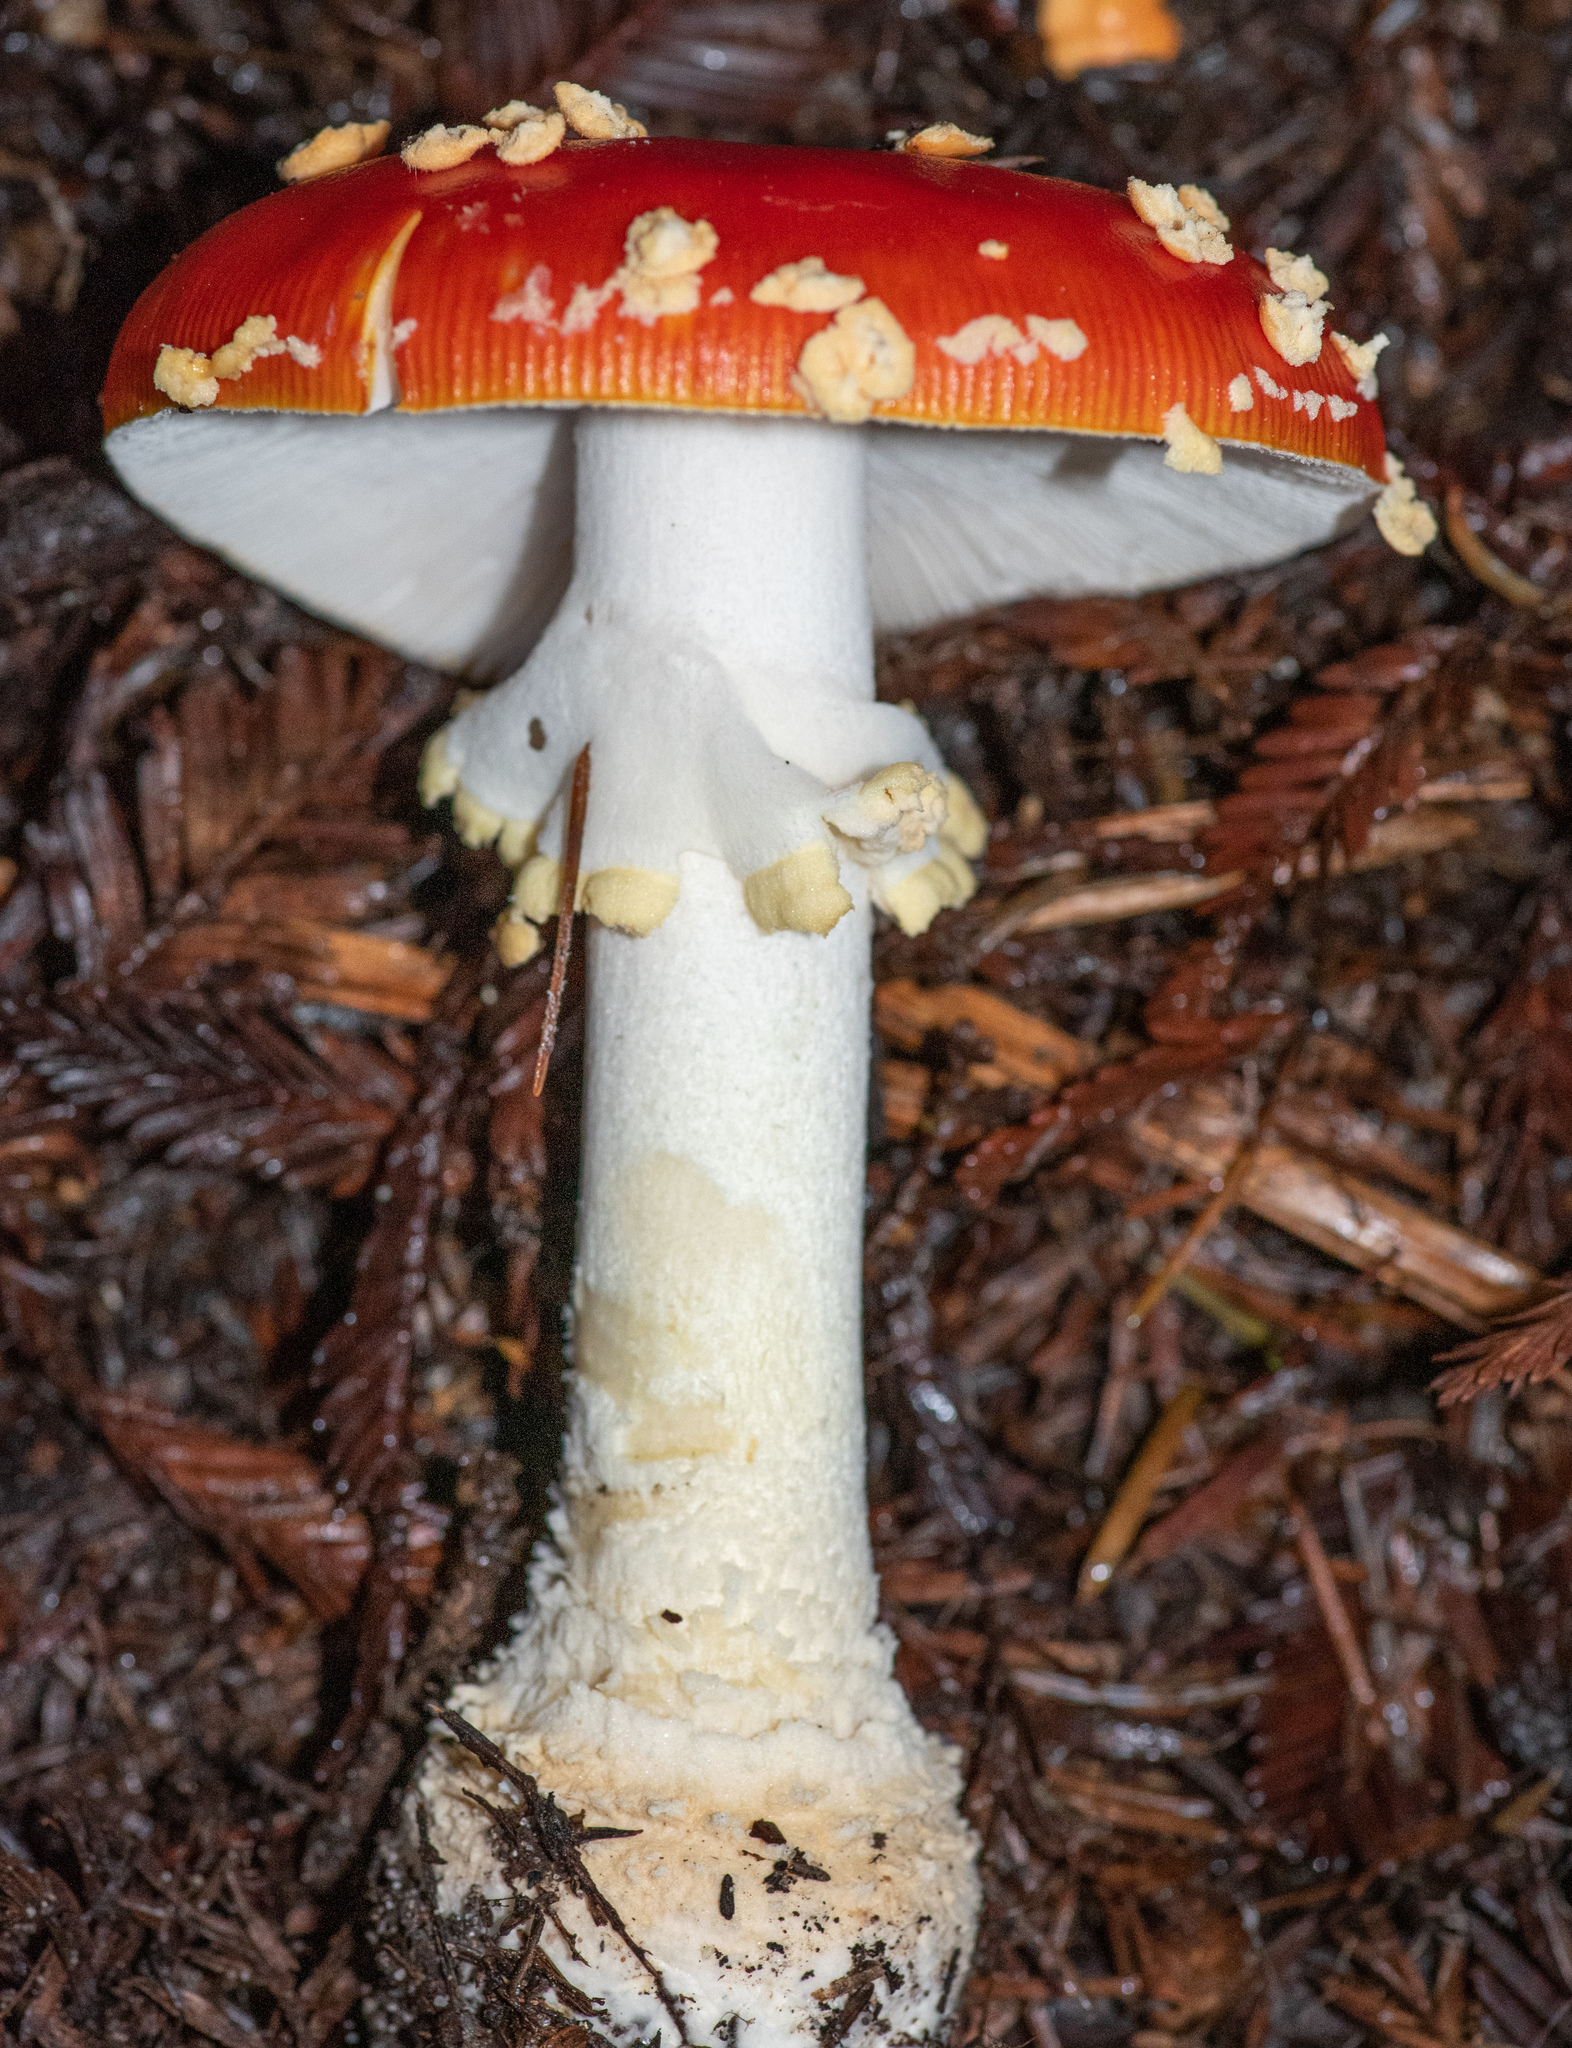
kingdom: Fungi
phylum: Basidiomycota
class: Agaricomycetes
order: Agaricales
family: Amanitaceae
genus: Amanita
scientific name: Amanita muscaria
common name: Fly agaric
